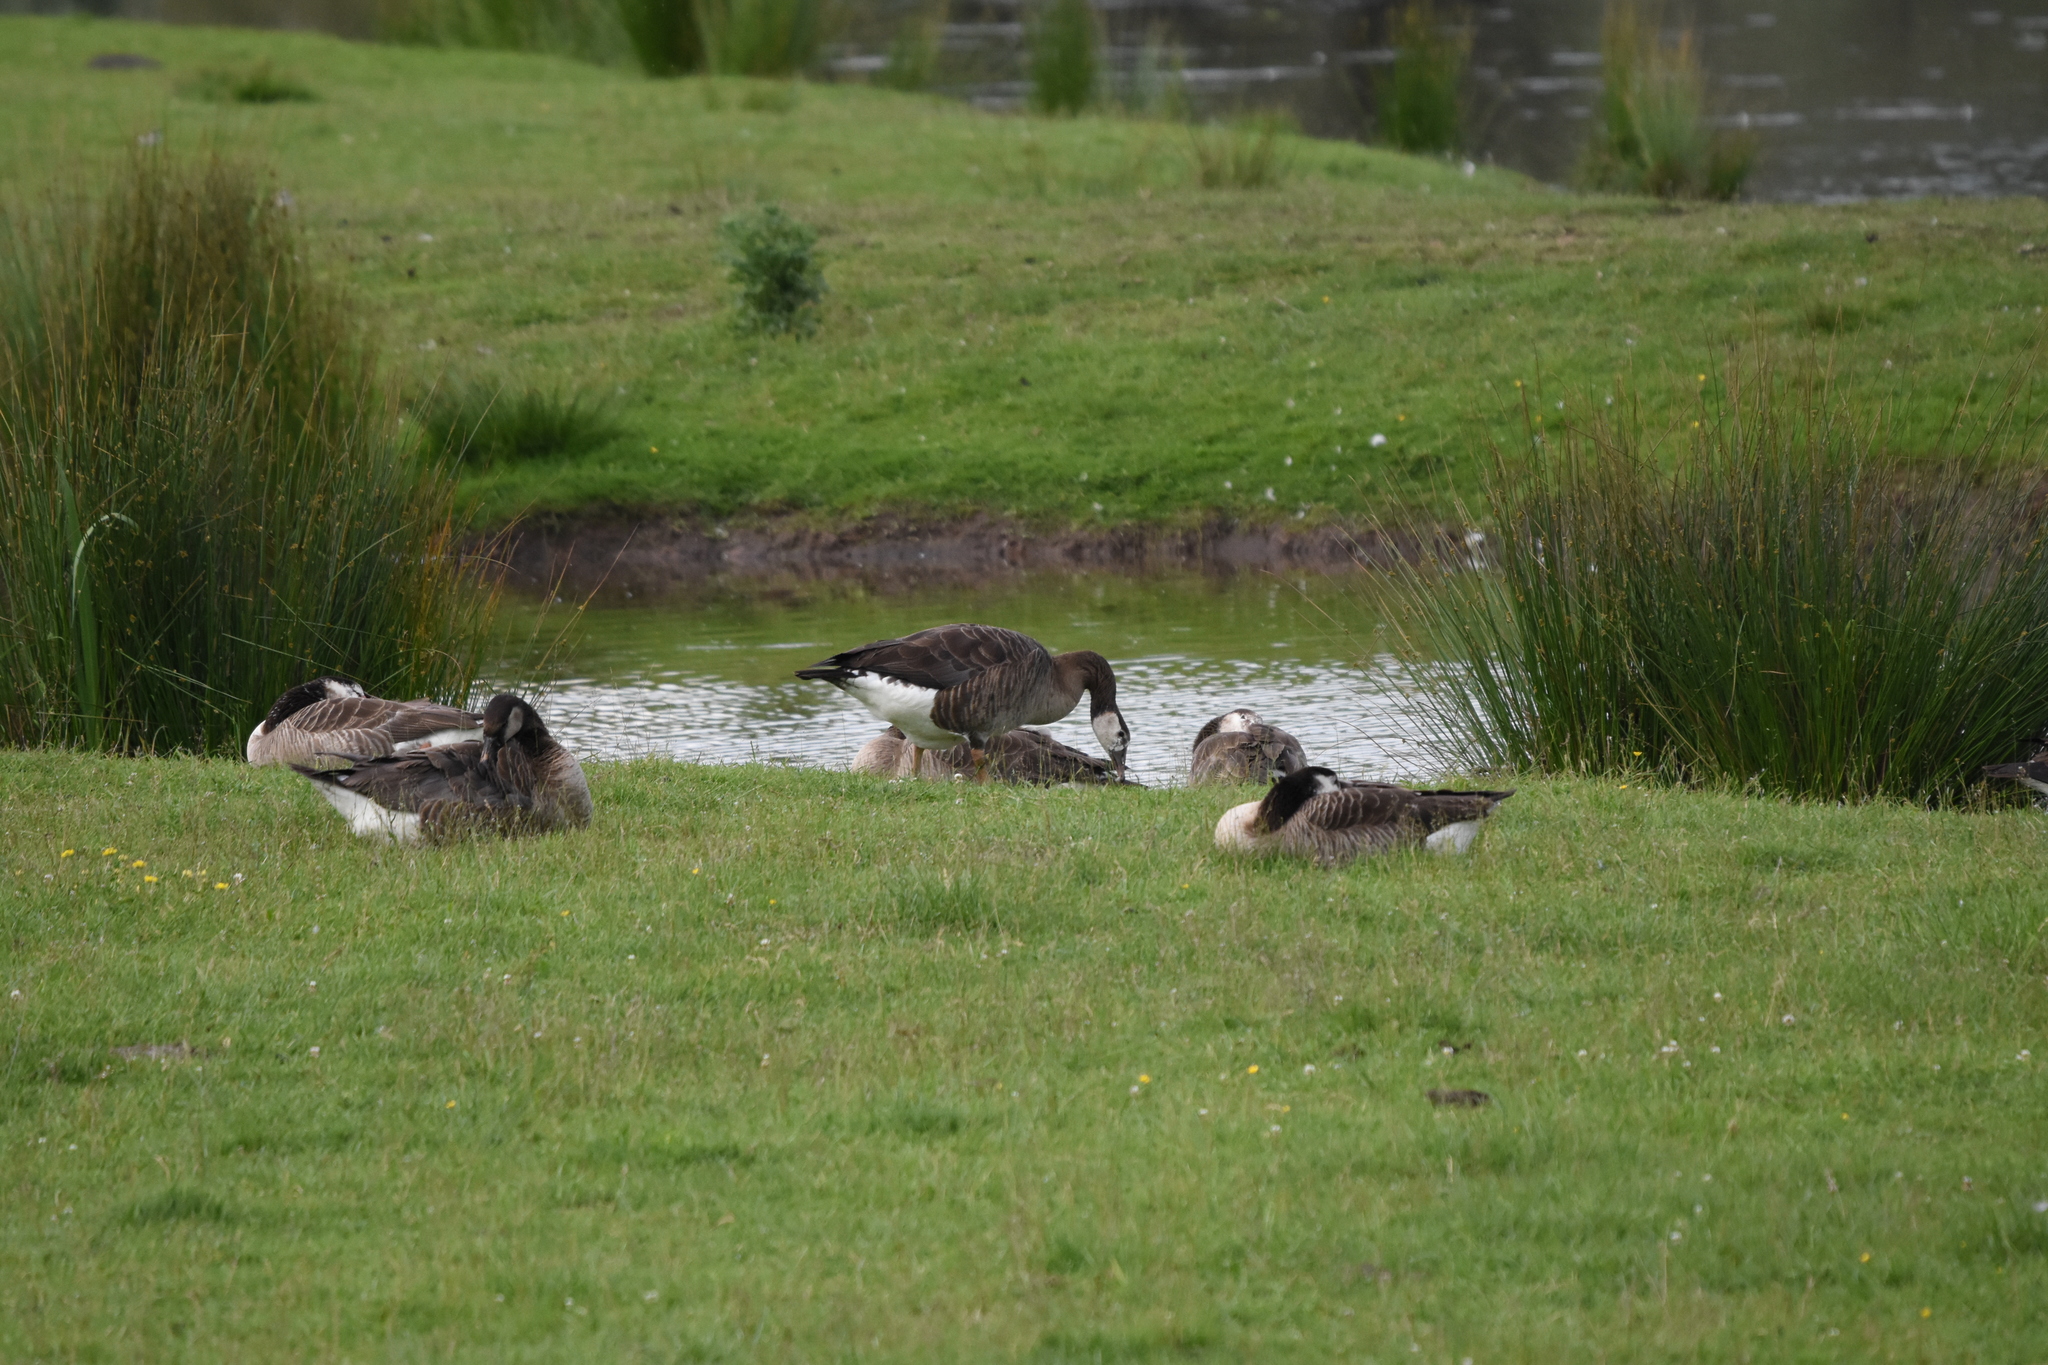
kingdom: Animalia
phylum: Chordata
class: Aves
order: Anseriformes
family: Anatidae
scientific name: Anatidae
